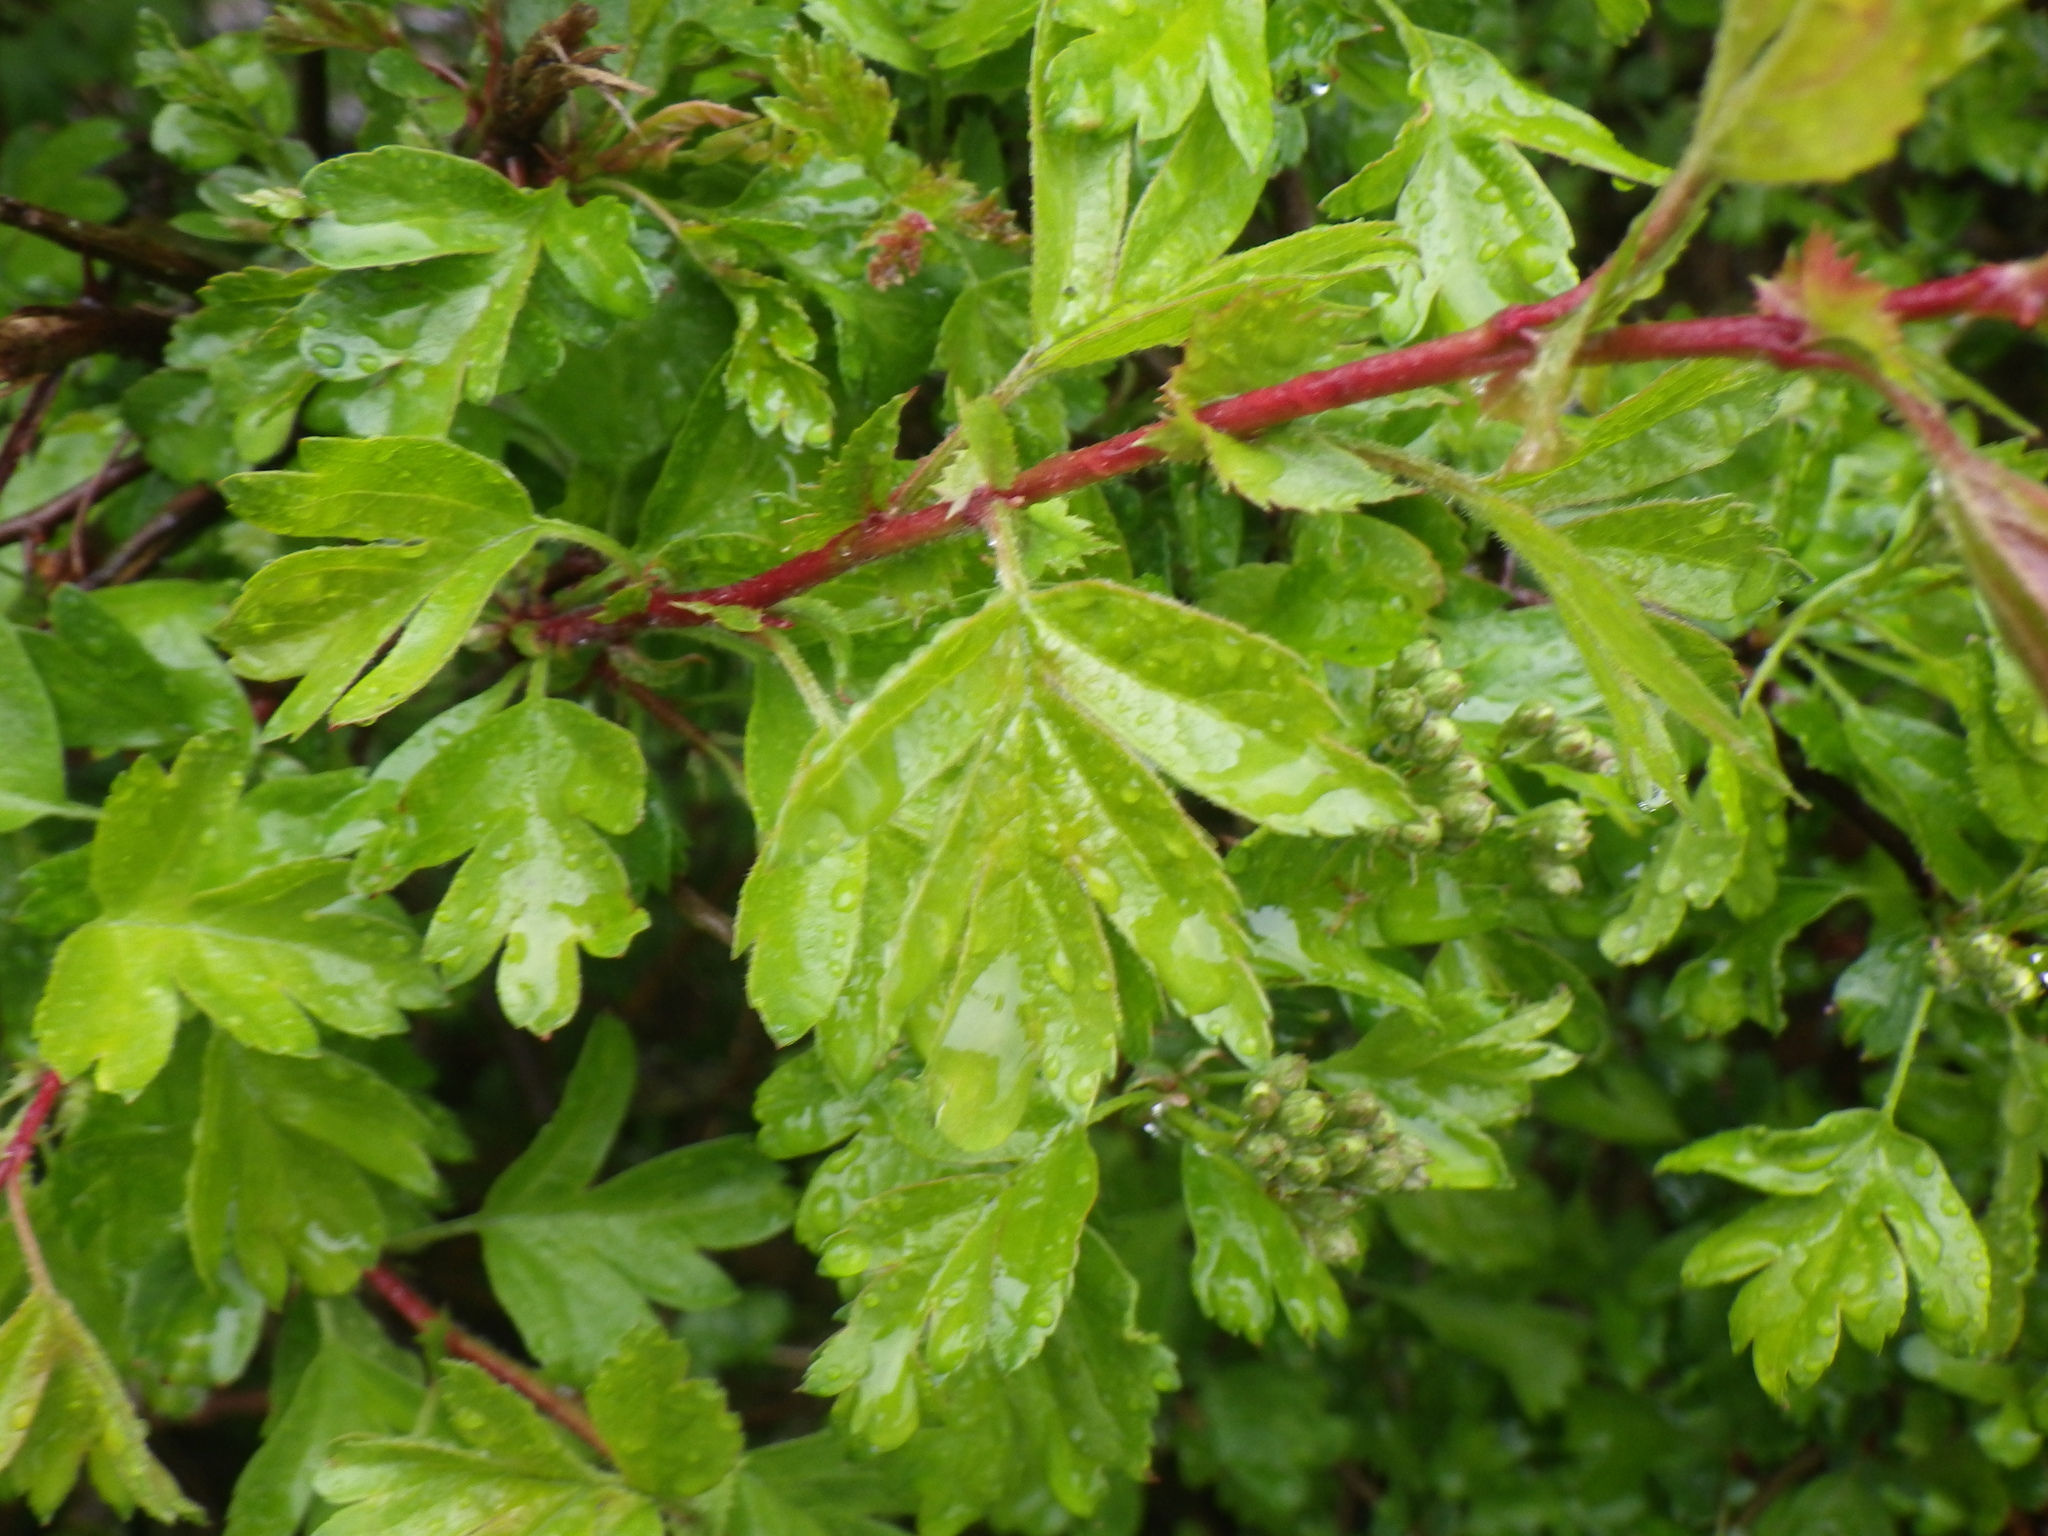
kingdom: Plantae
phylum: Tracheophyta
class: Magnoliopsida
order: Rosales
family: Rosaceae
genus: Crataegus
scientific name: Crataegus monogyna
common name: Hawthorn
